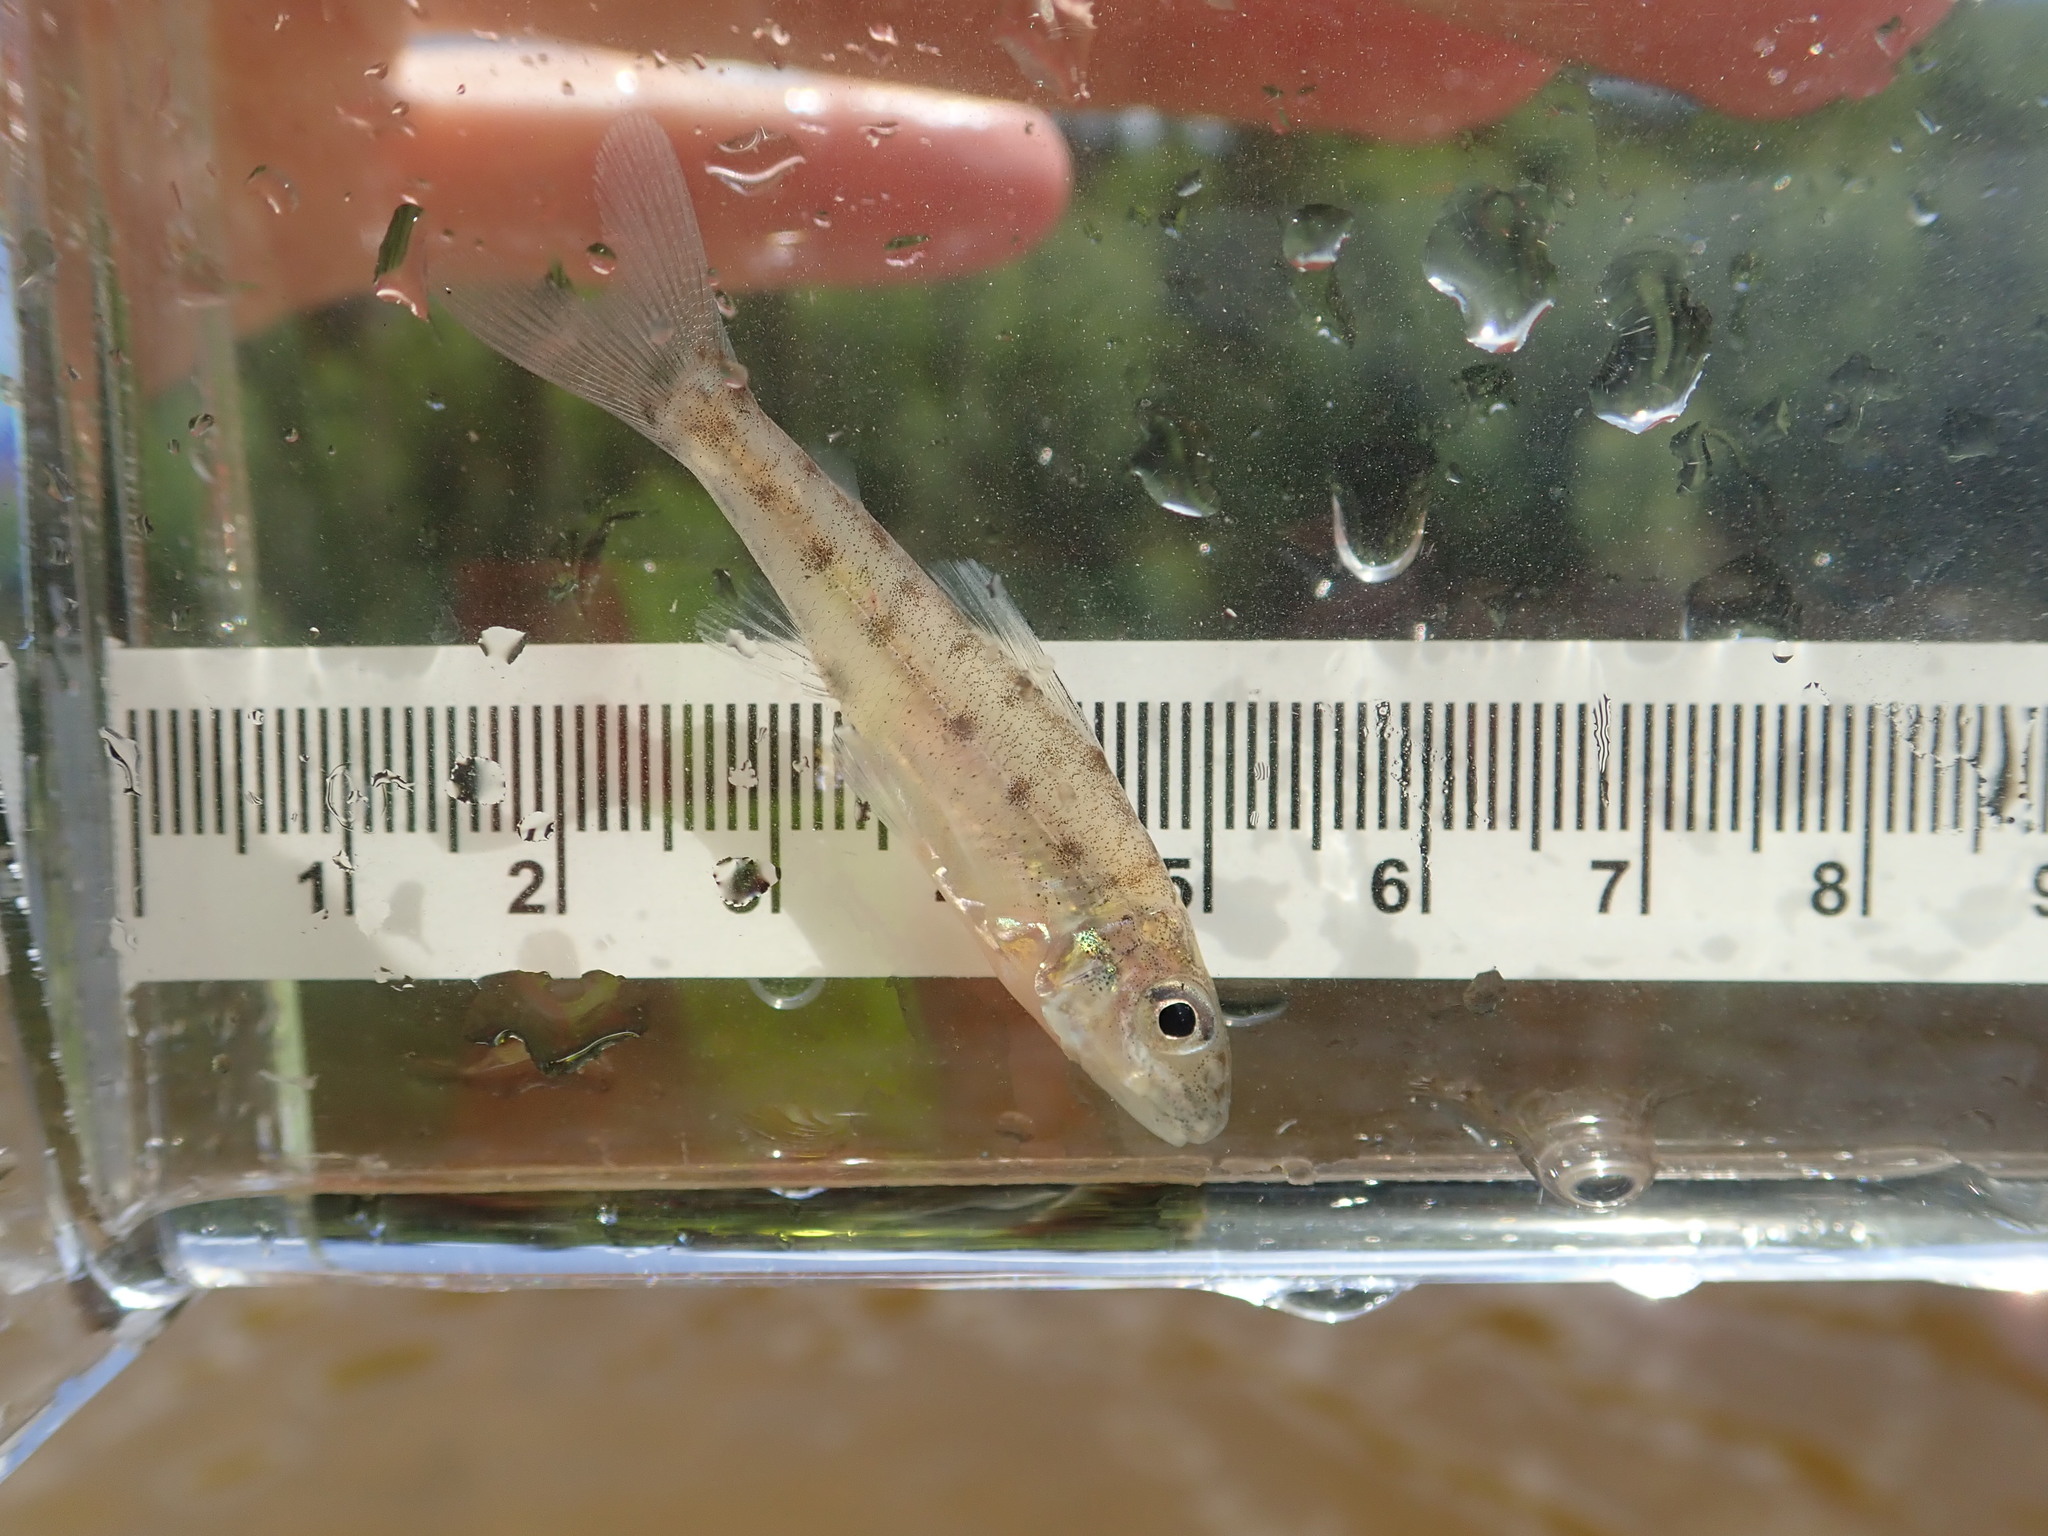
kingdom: Animalia
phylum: Chordata
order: Percopsiformes
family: Percopsidae
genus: Percopsis
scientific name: Percopsis omiscomaycus
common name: Trout-perch
